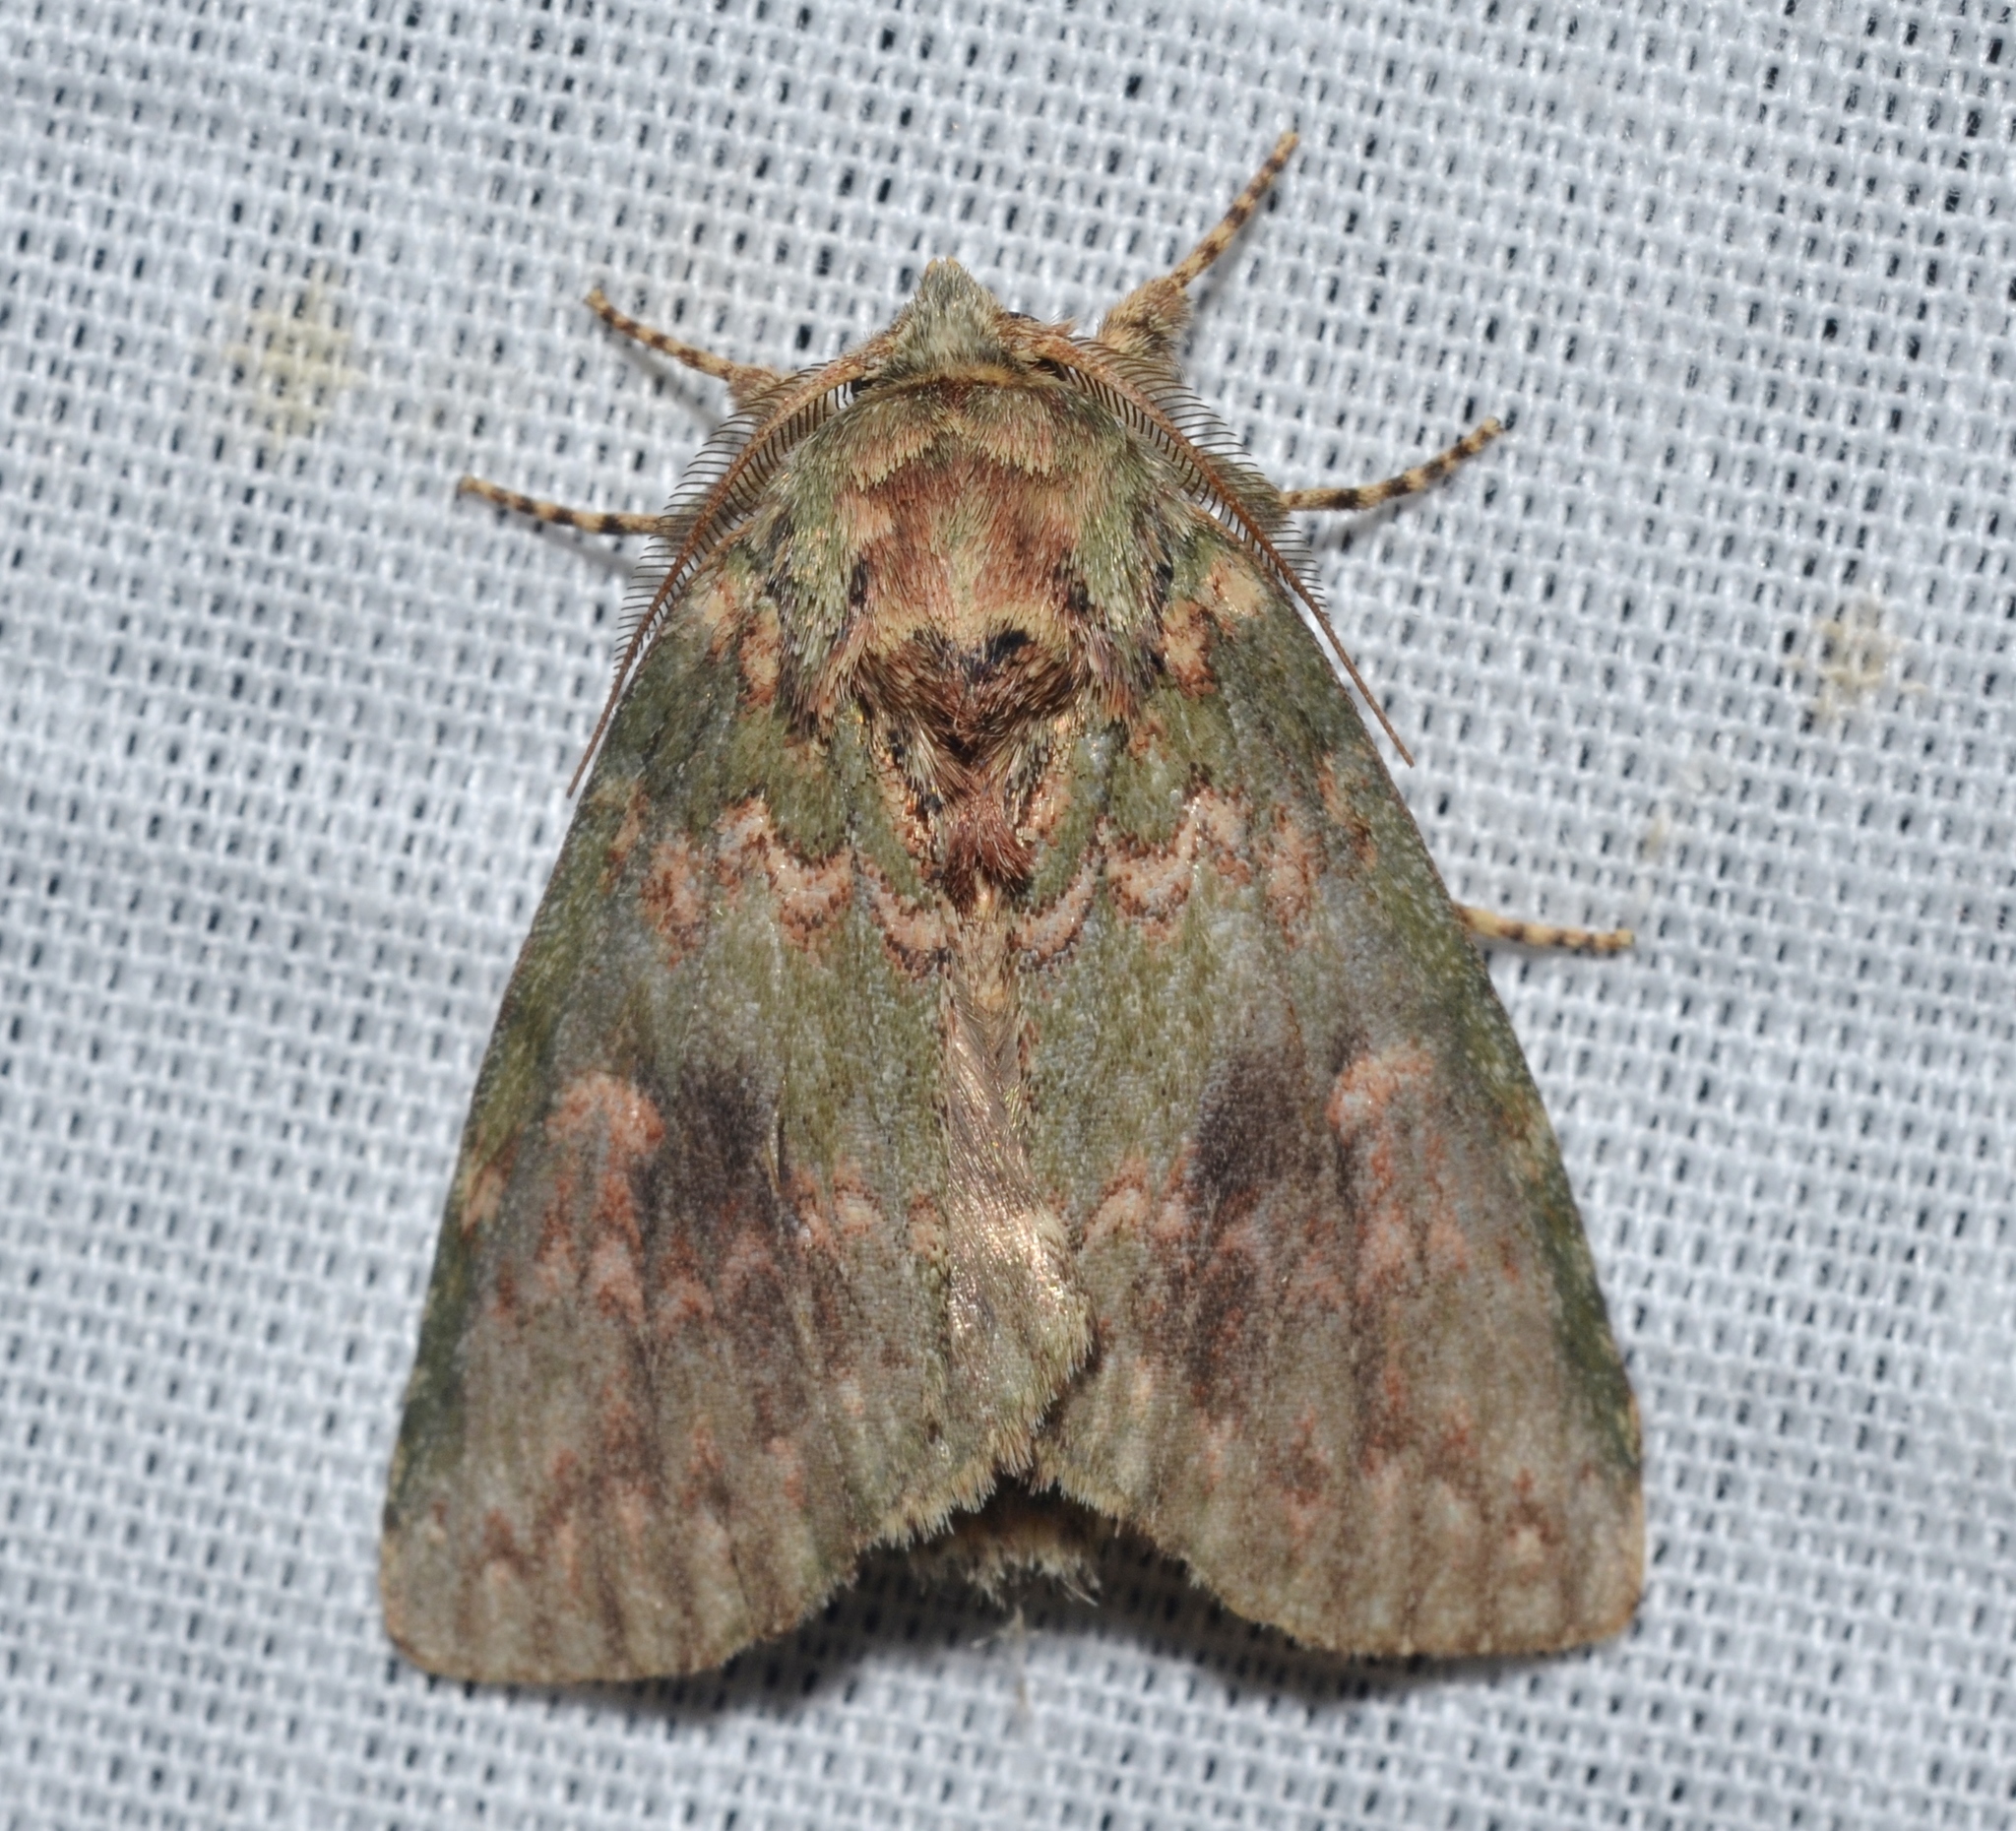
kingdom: Animalia
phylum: Arthropoda
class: Insecta
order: Lepidoptera
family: Notodontidae
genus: Disphragis
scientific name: Disphragis Cecrita biundata
